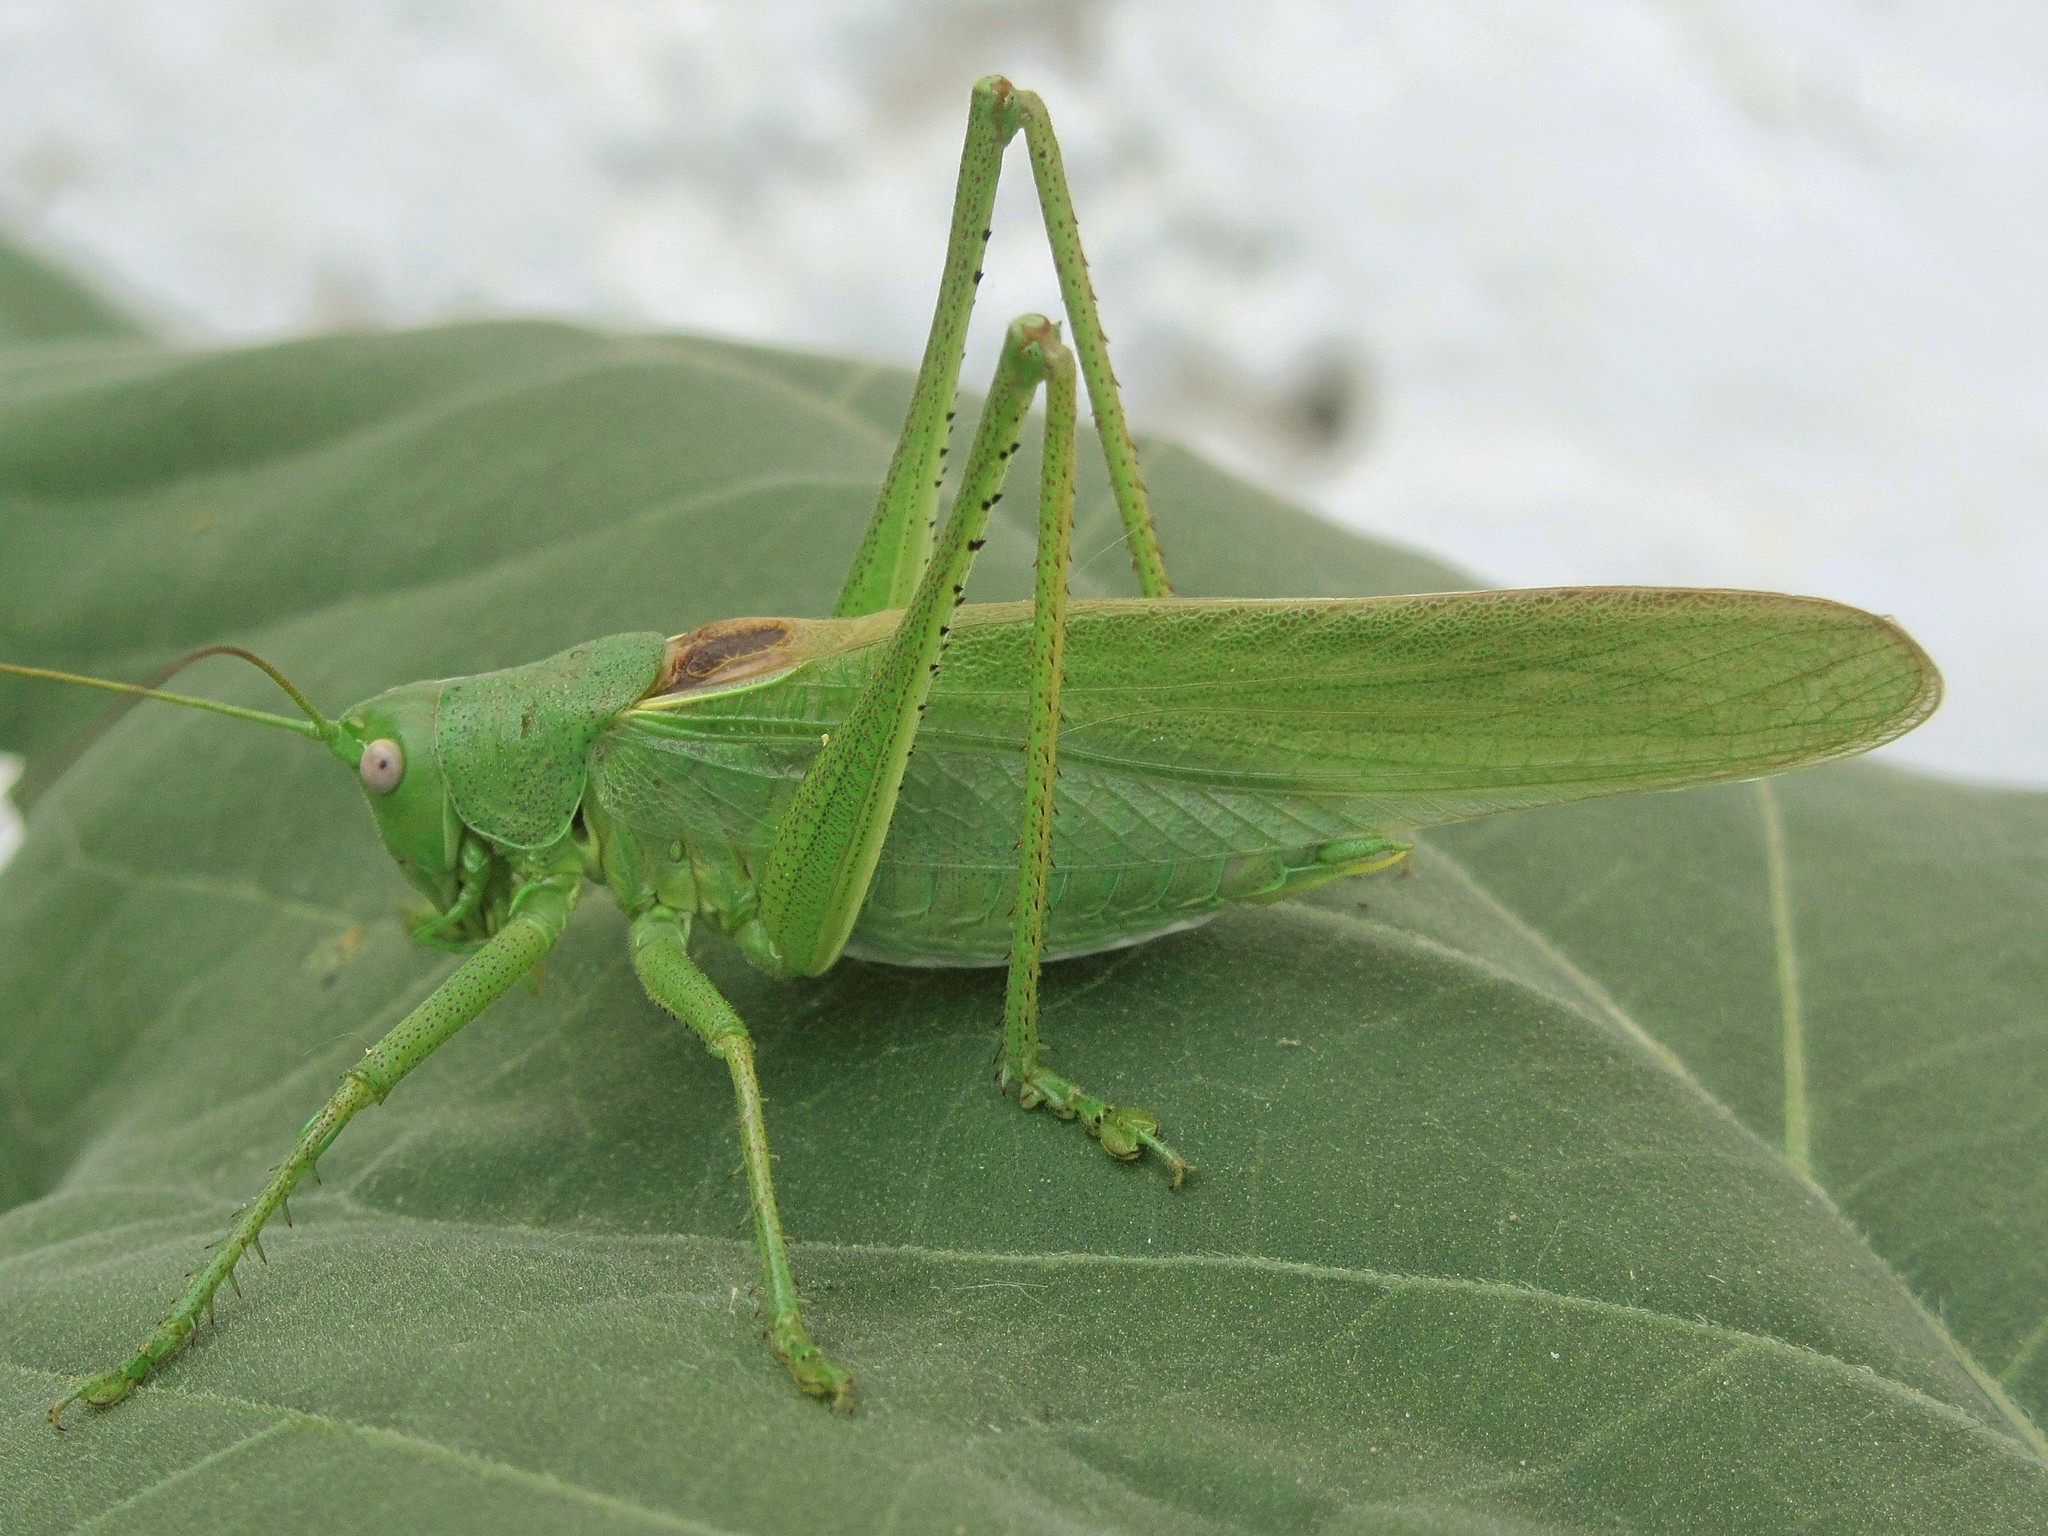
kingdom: Animalia
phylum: Arthropoda
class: Insecta
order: Orthoptera
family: Tettigoniidae
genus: Tettigonia
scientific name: Tettigonia caudata
